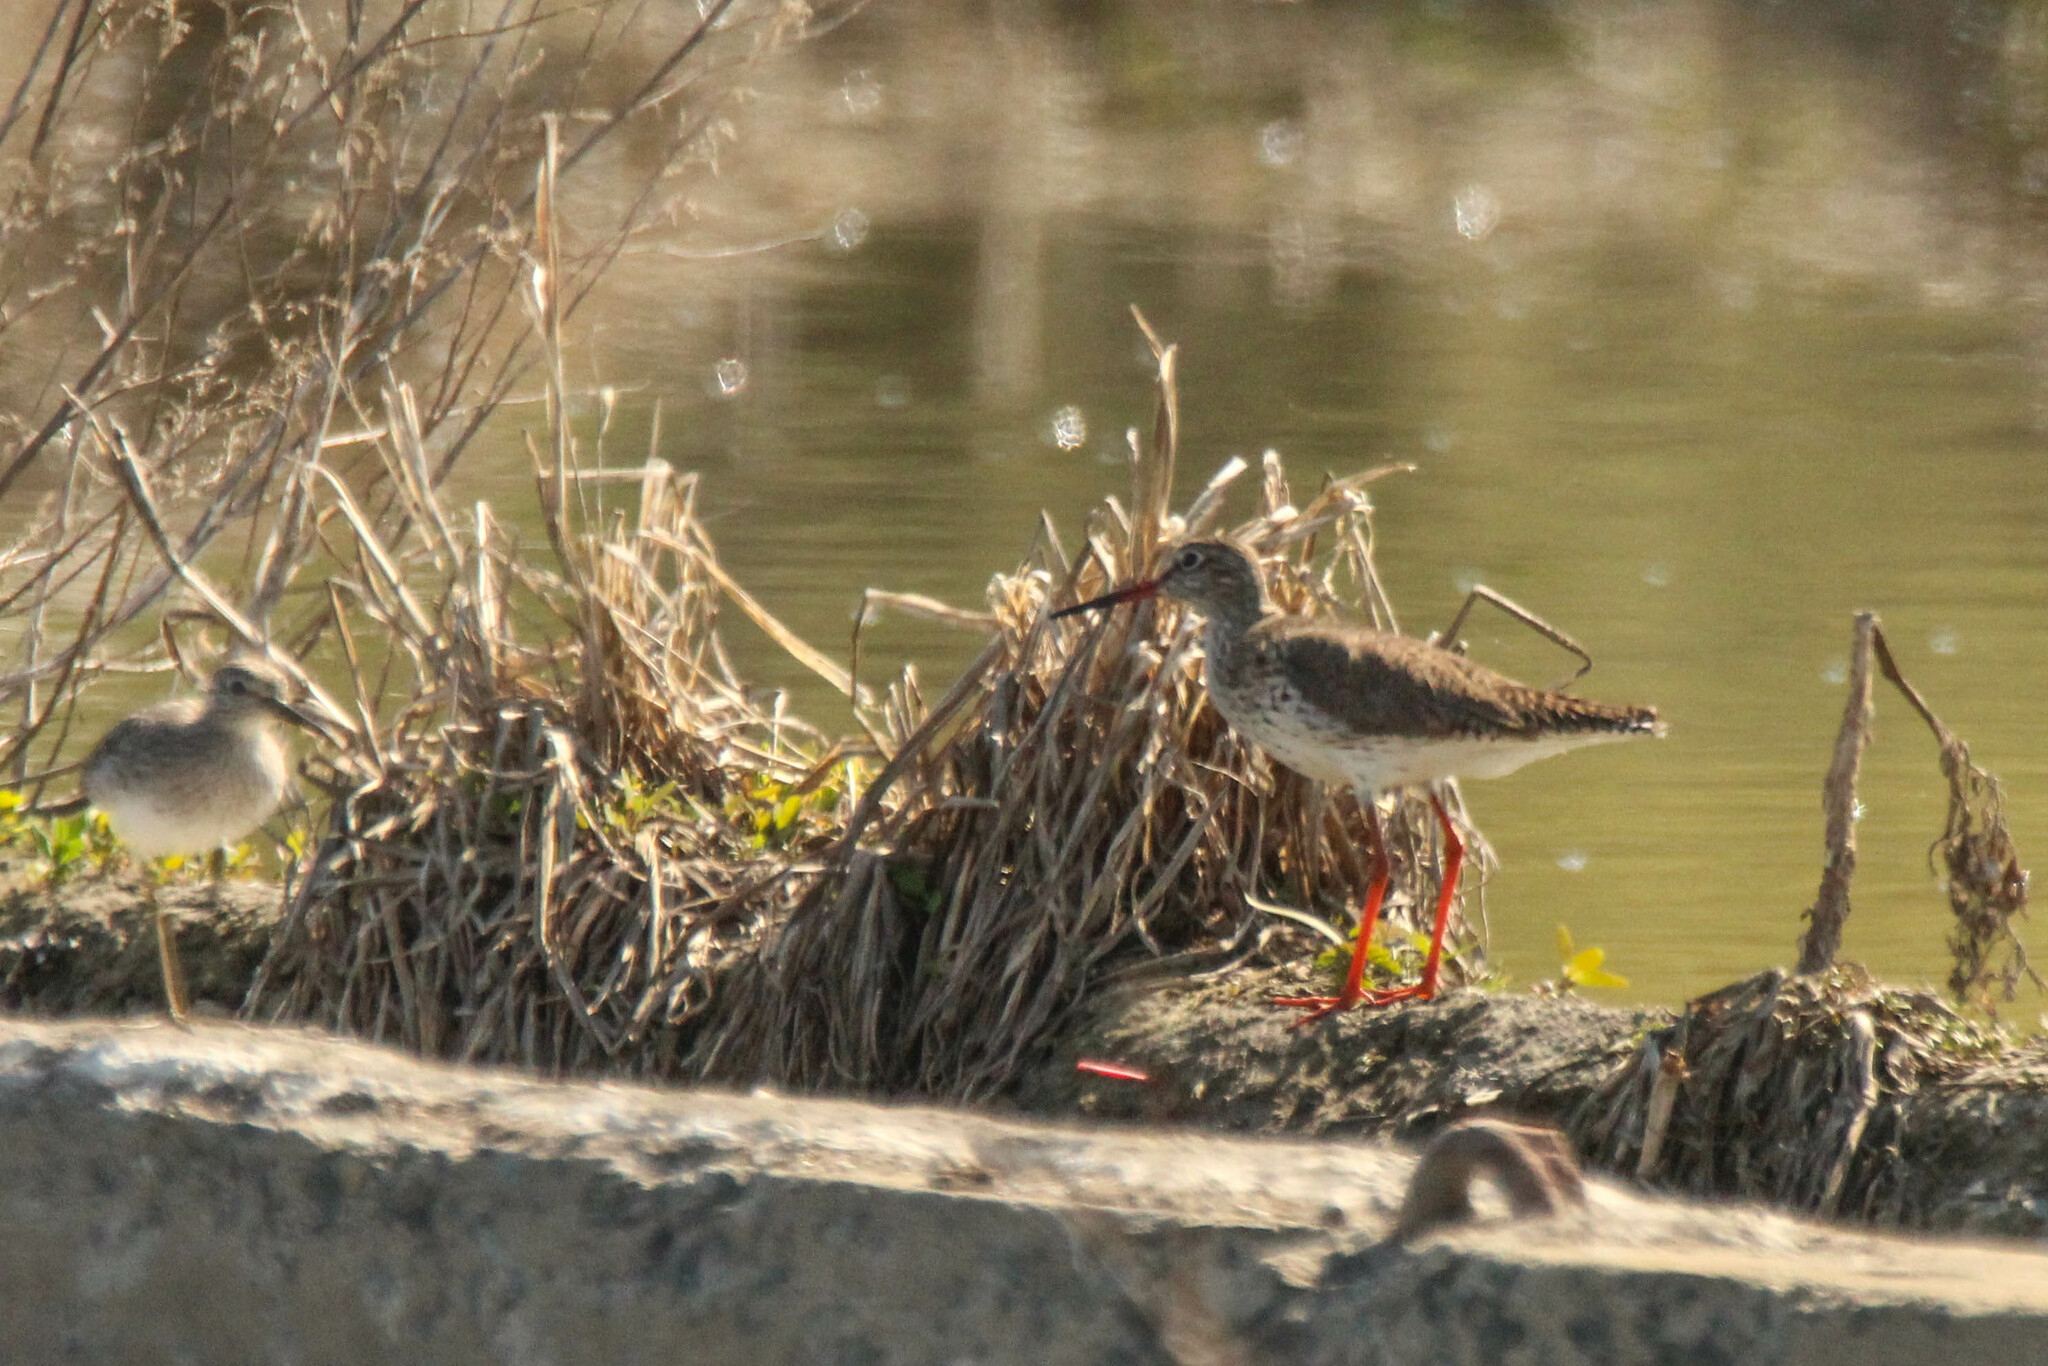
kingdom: Animalia
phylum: Chordata
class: Aves
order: Charadriiformes
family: Scolopacidae
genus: Tringa
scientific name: Tringa totanus
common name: Common redshank
